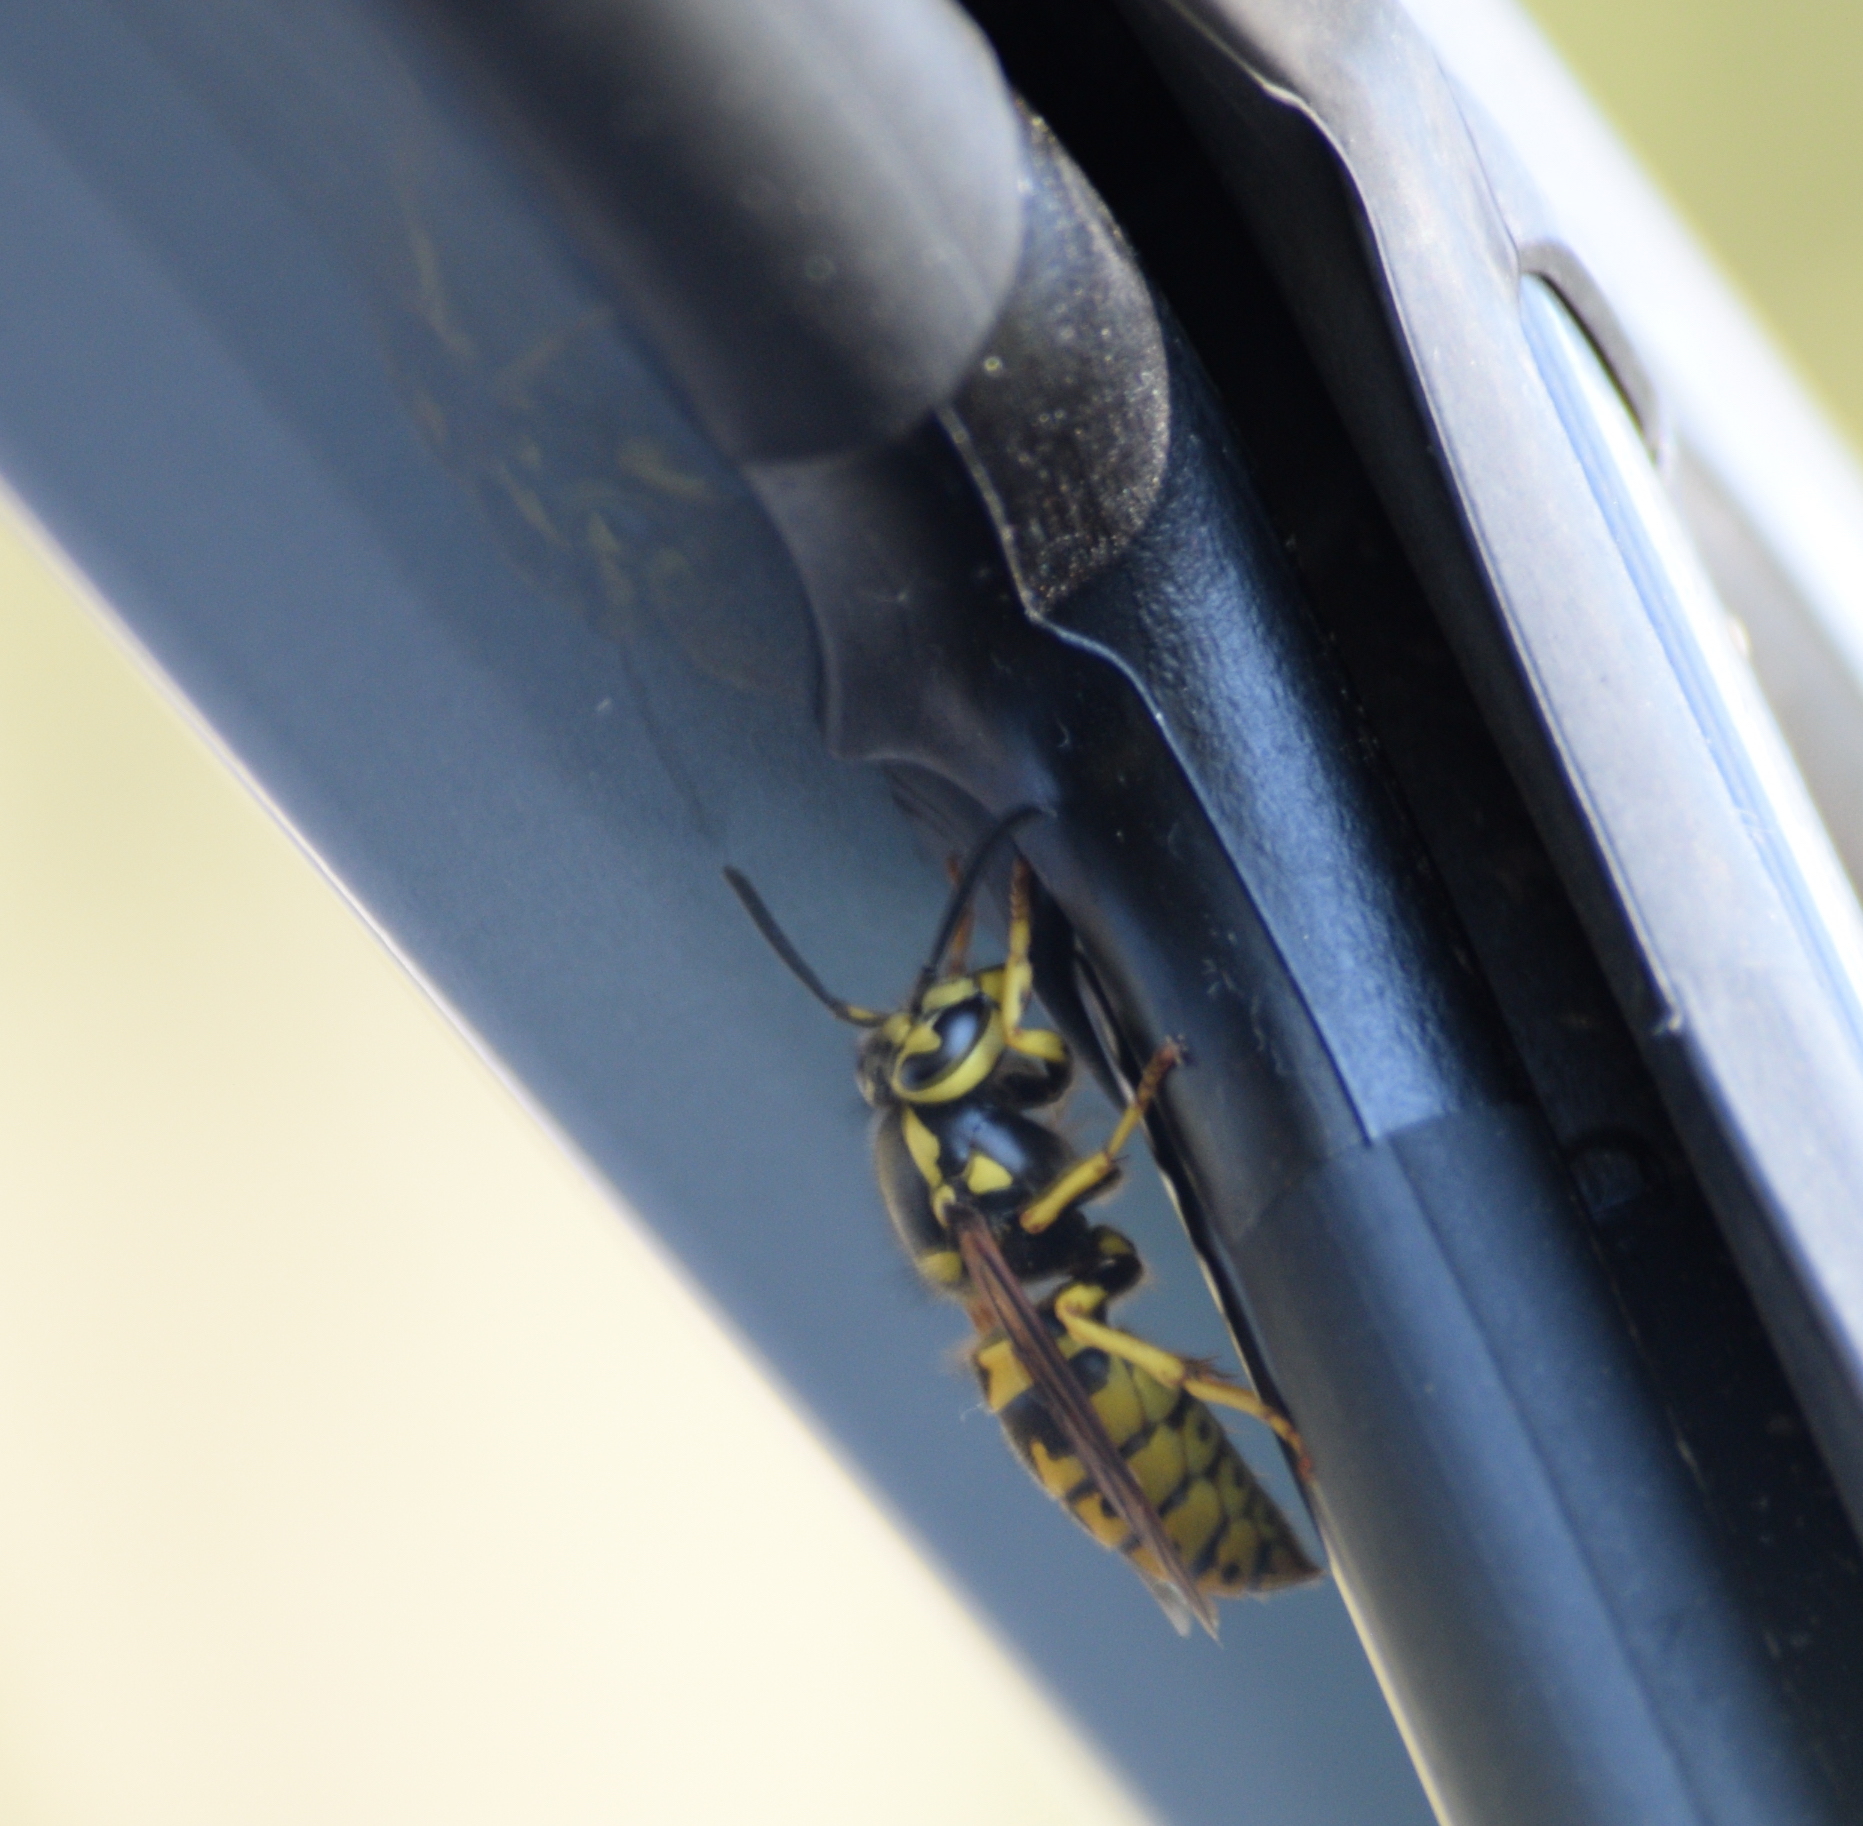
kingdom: Animalia
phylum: Arthropoda
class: Insecta
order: Hymenoptera
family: Vespidae
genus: Vespula
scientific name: Vespula pensylvanica
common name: Western yellowjacket
